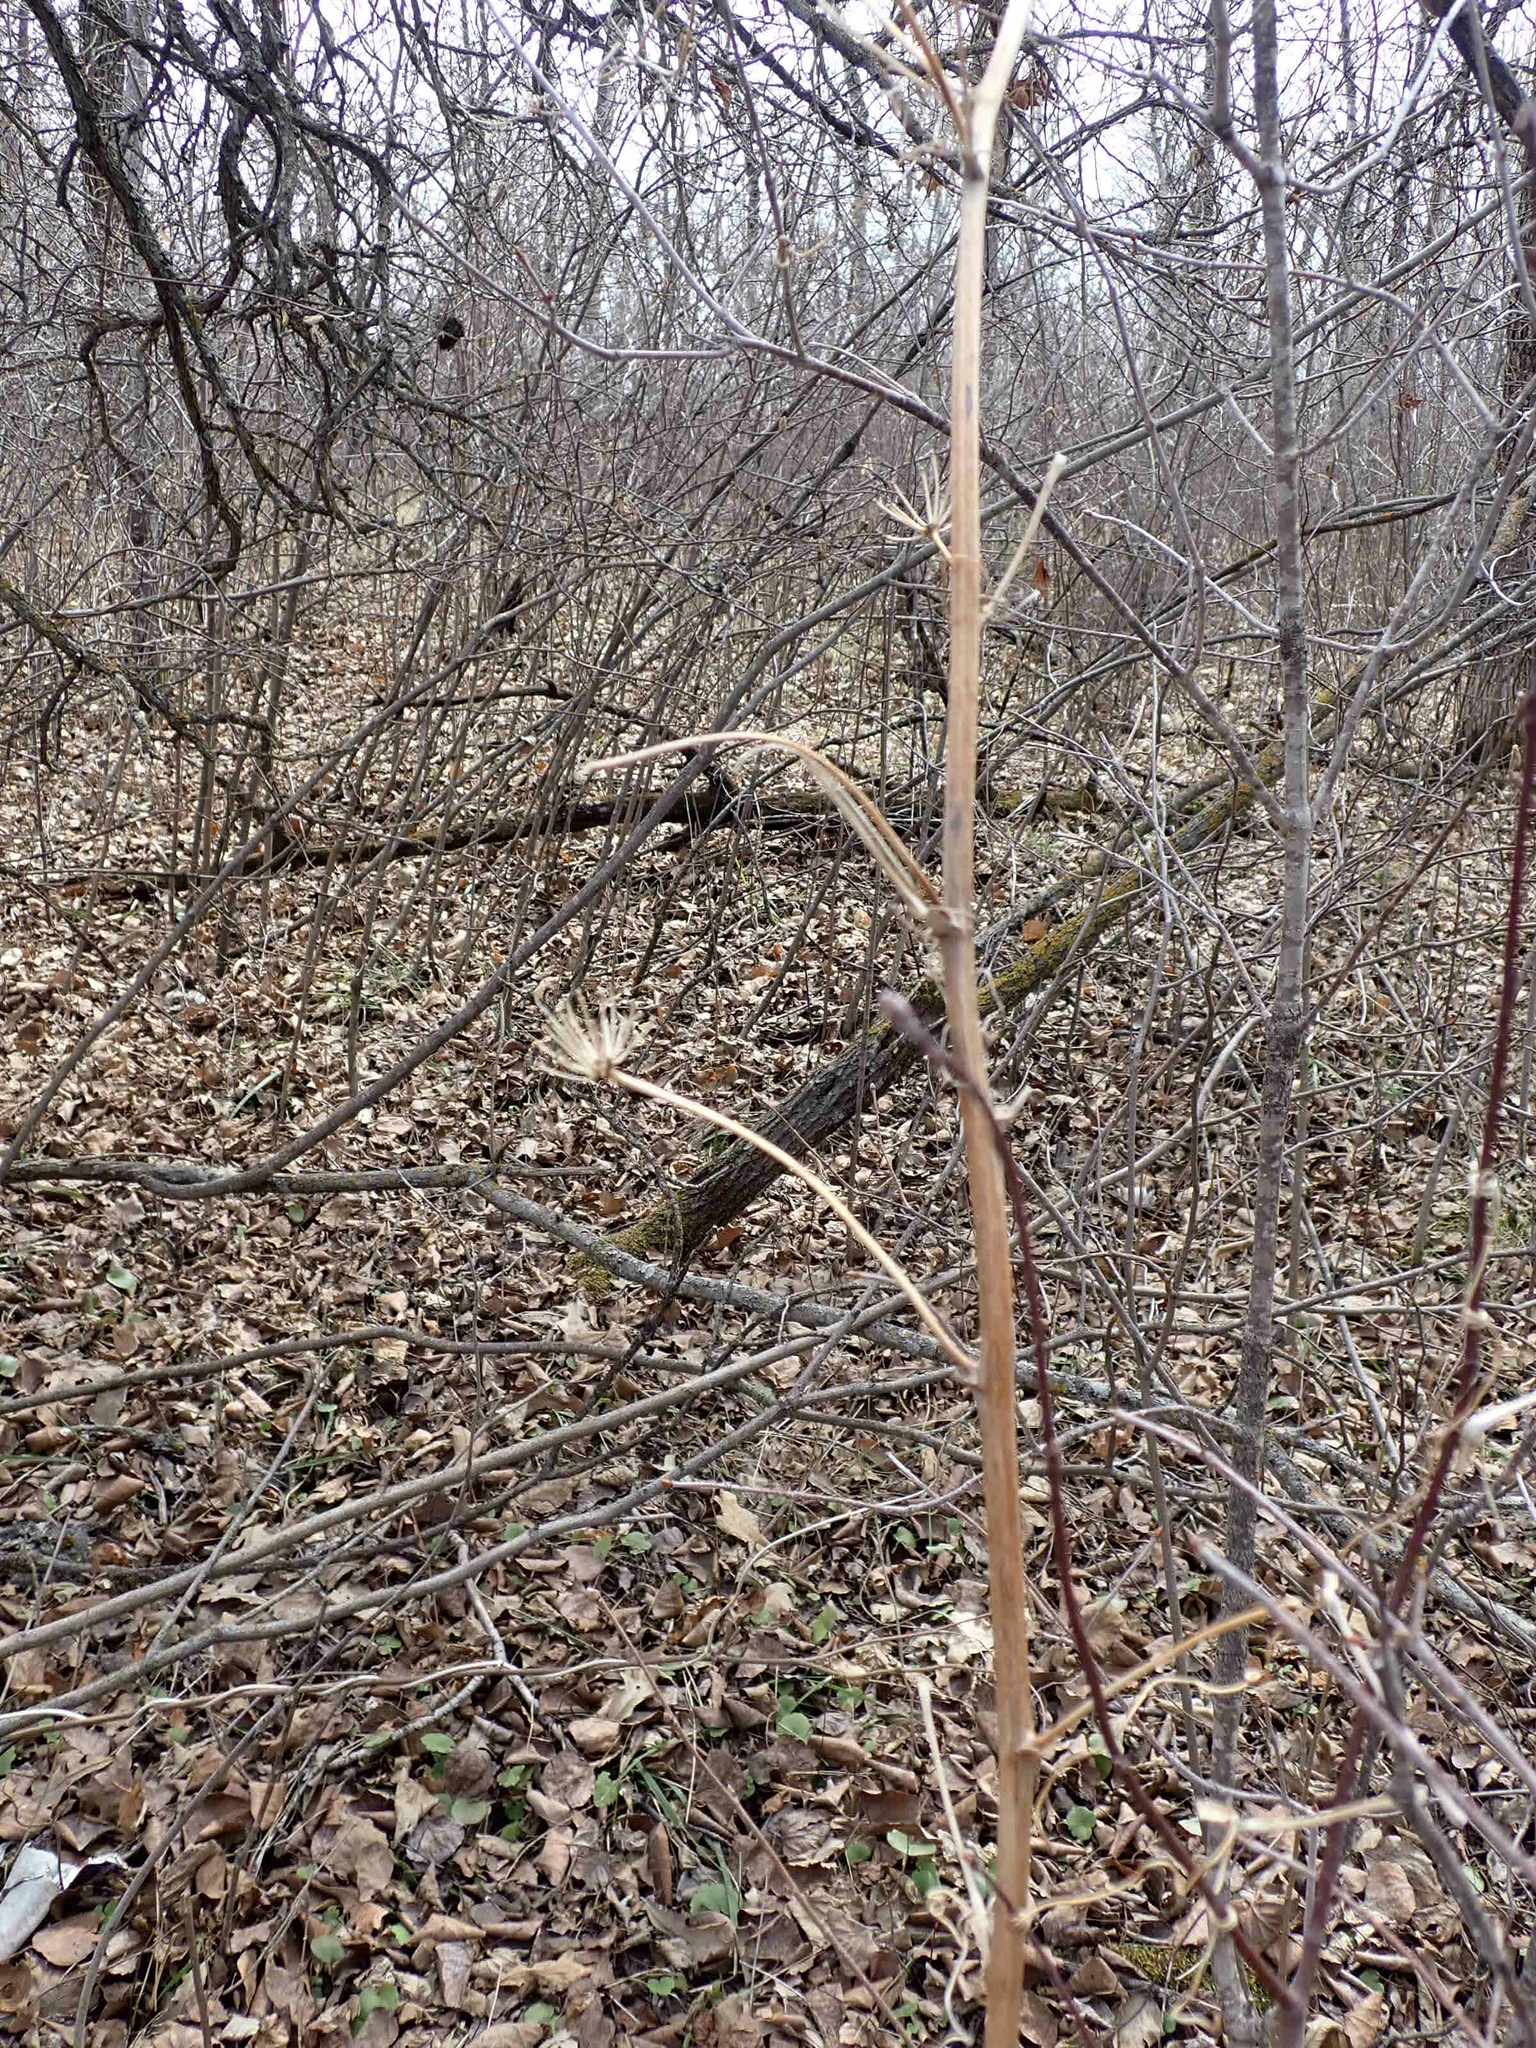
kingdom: Plantae
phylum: Tracheophyta
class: Liliopsida
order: Liliales
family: Smilacaceae
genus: Smilax
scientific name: Smilax lasioneura
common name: Blue ridge carrionflower
